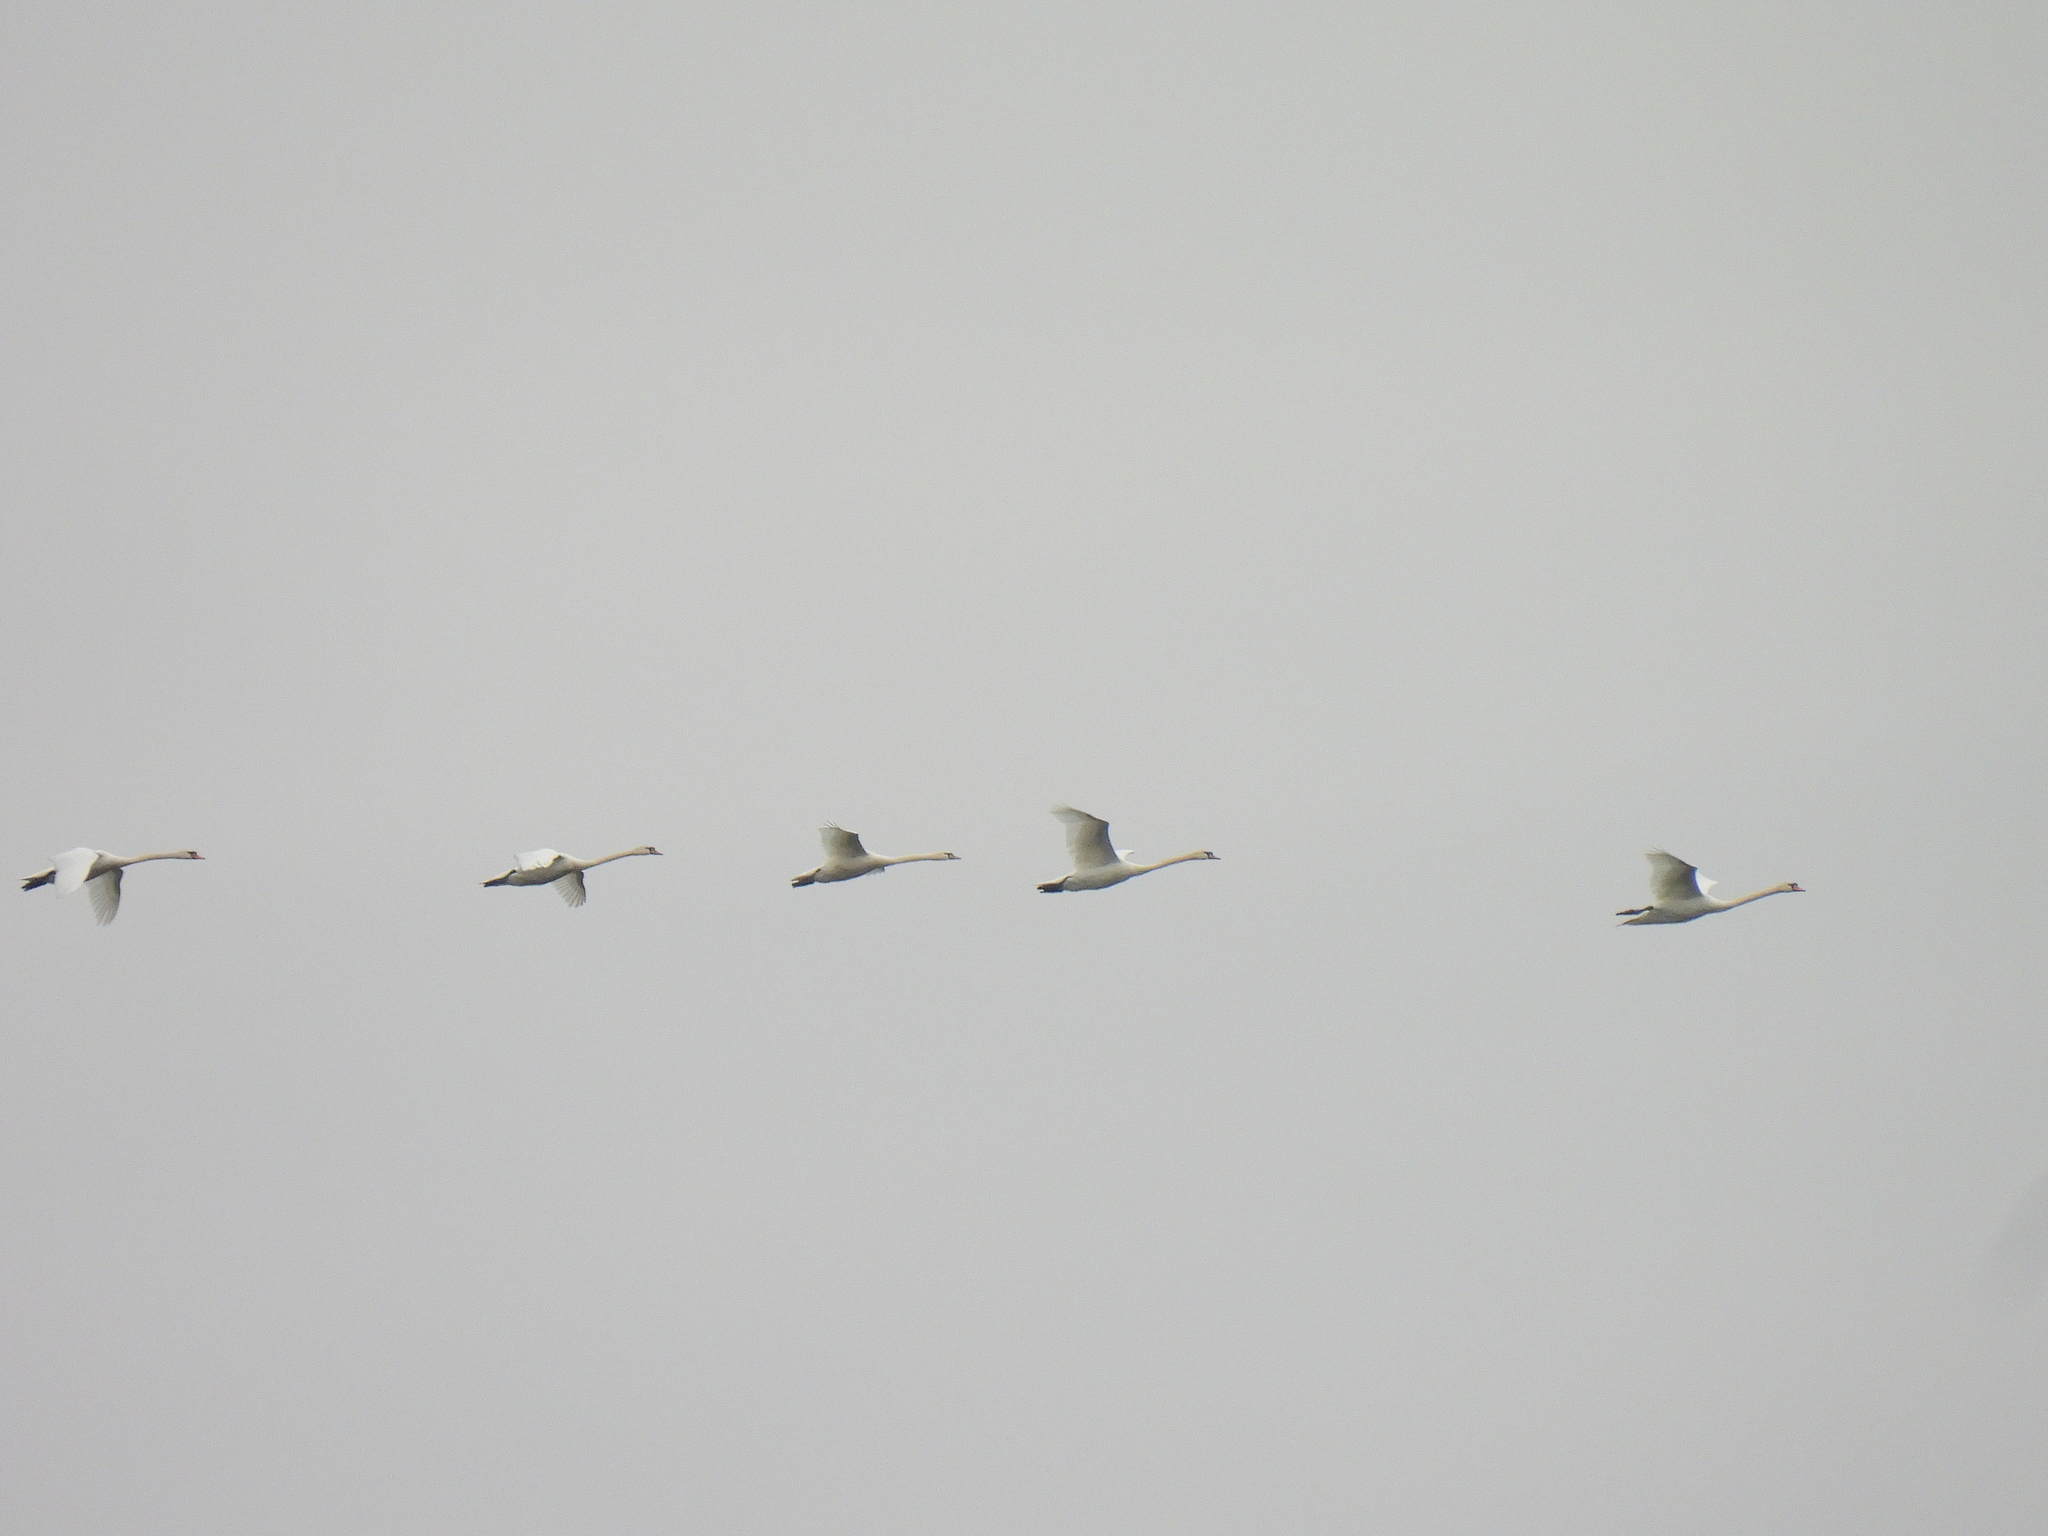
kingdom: Animalia
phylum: Chordata
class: Aves
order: Anseriformes
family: Anatidae
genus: Cygnus
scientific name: Cygnus olor
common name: Mute swan
